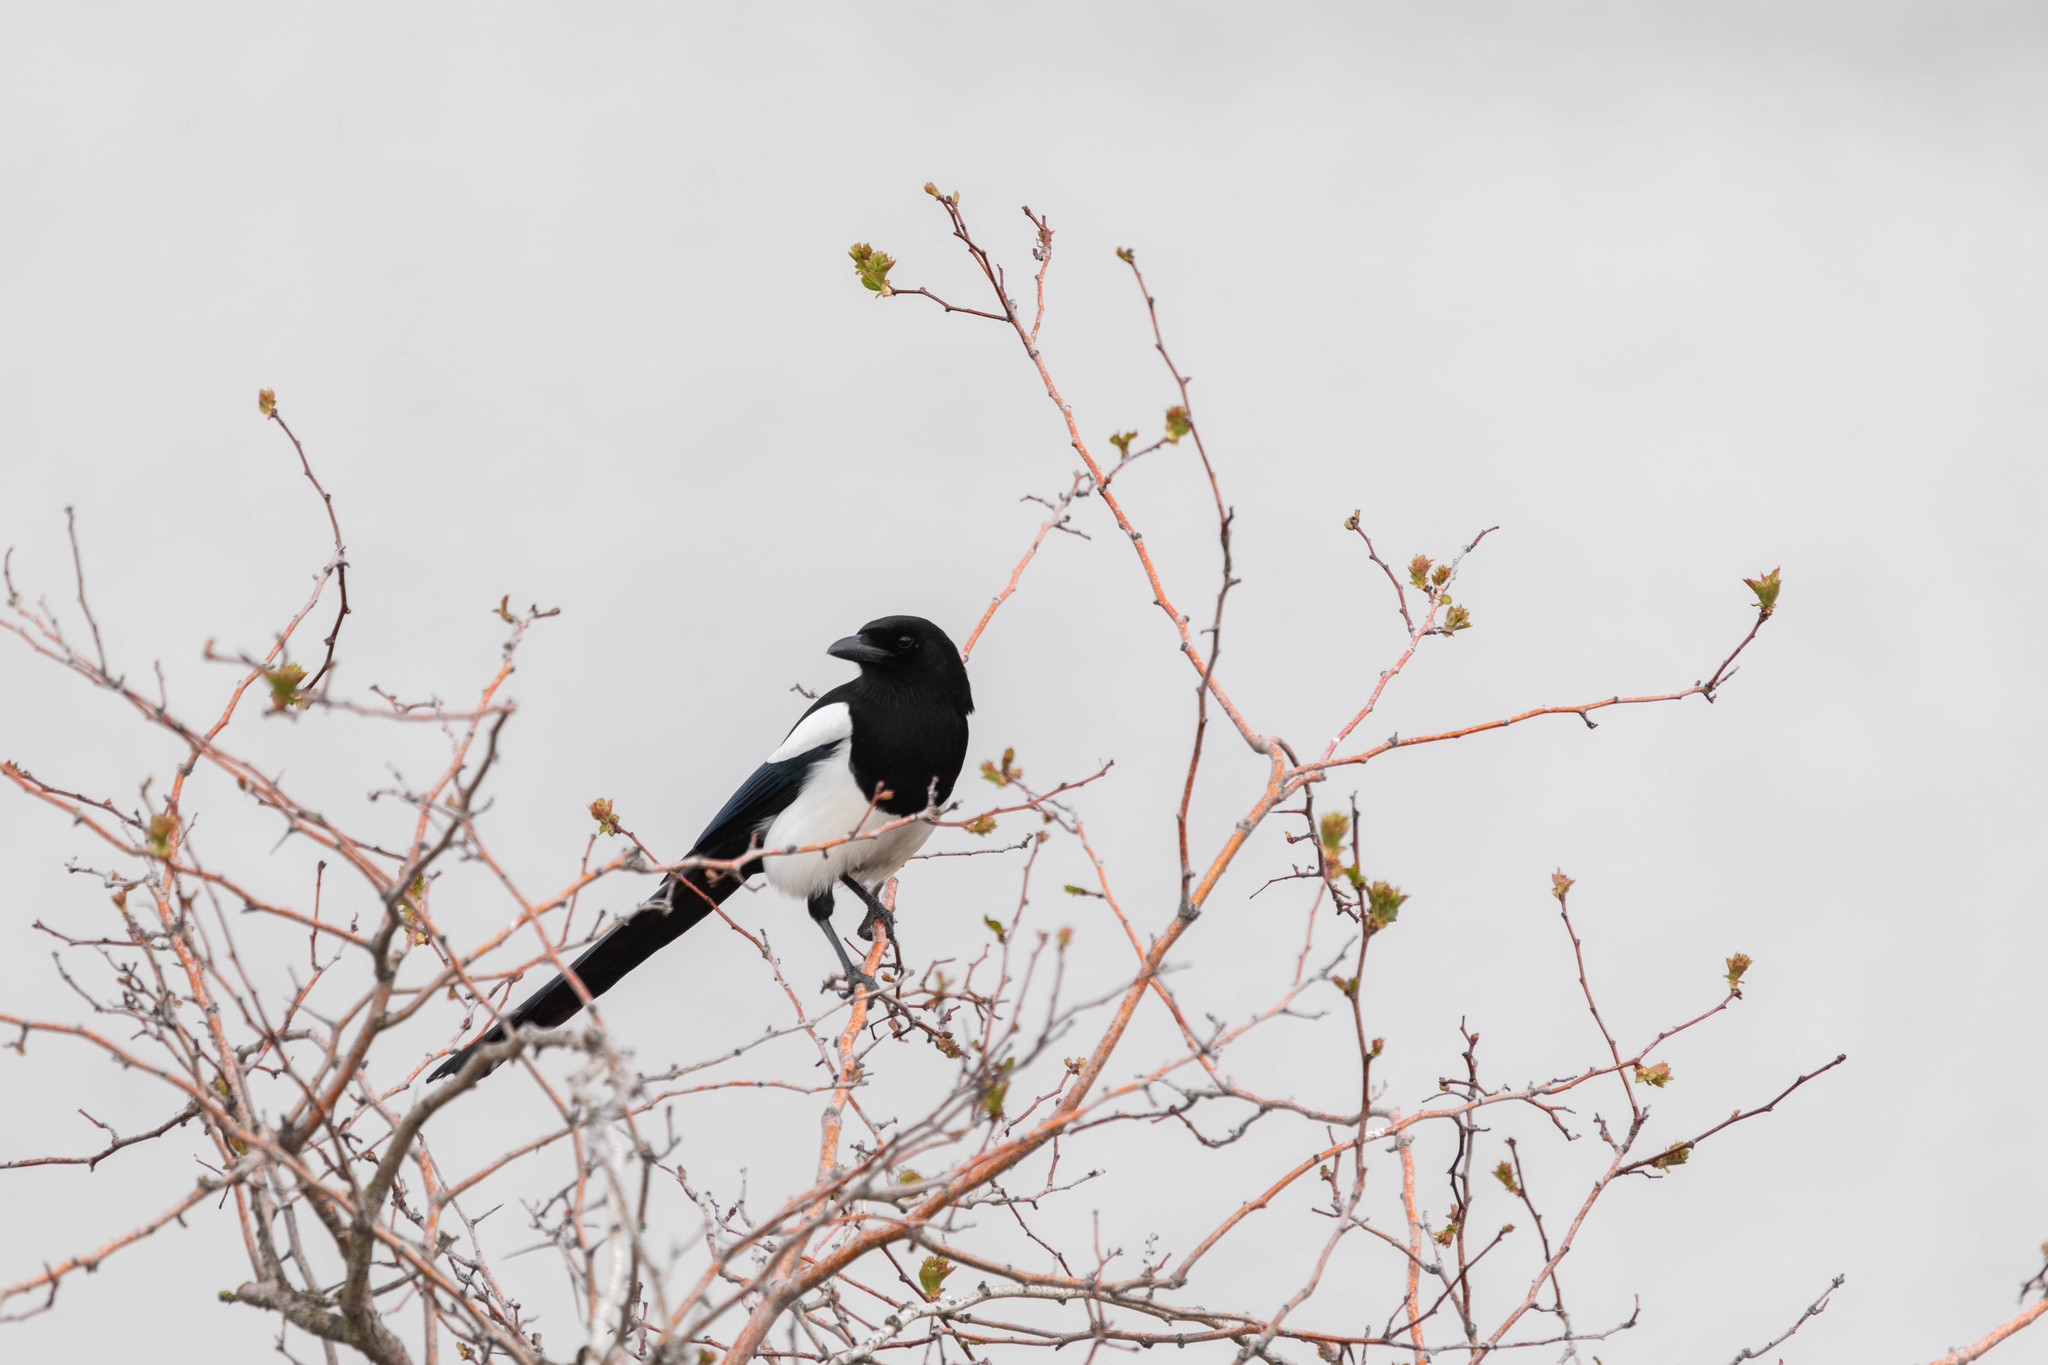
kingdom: Animalia
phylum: Chordata
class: Aves
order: Passeriformes
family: Corvidae
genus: Pica
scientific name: Pica hudsonia
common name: Black-billed magpie
